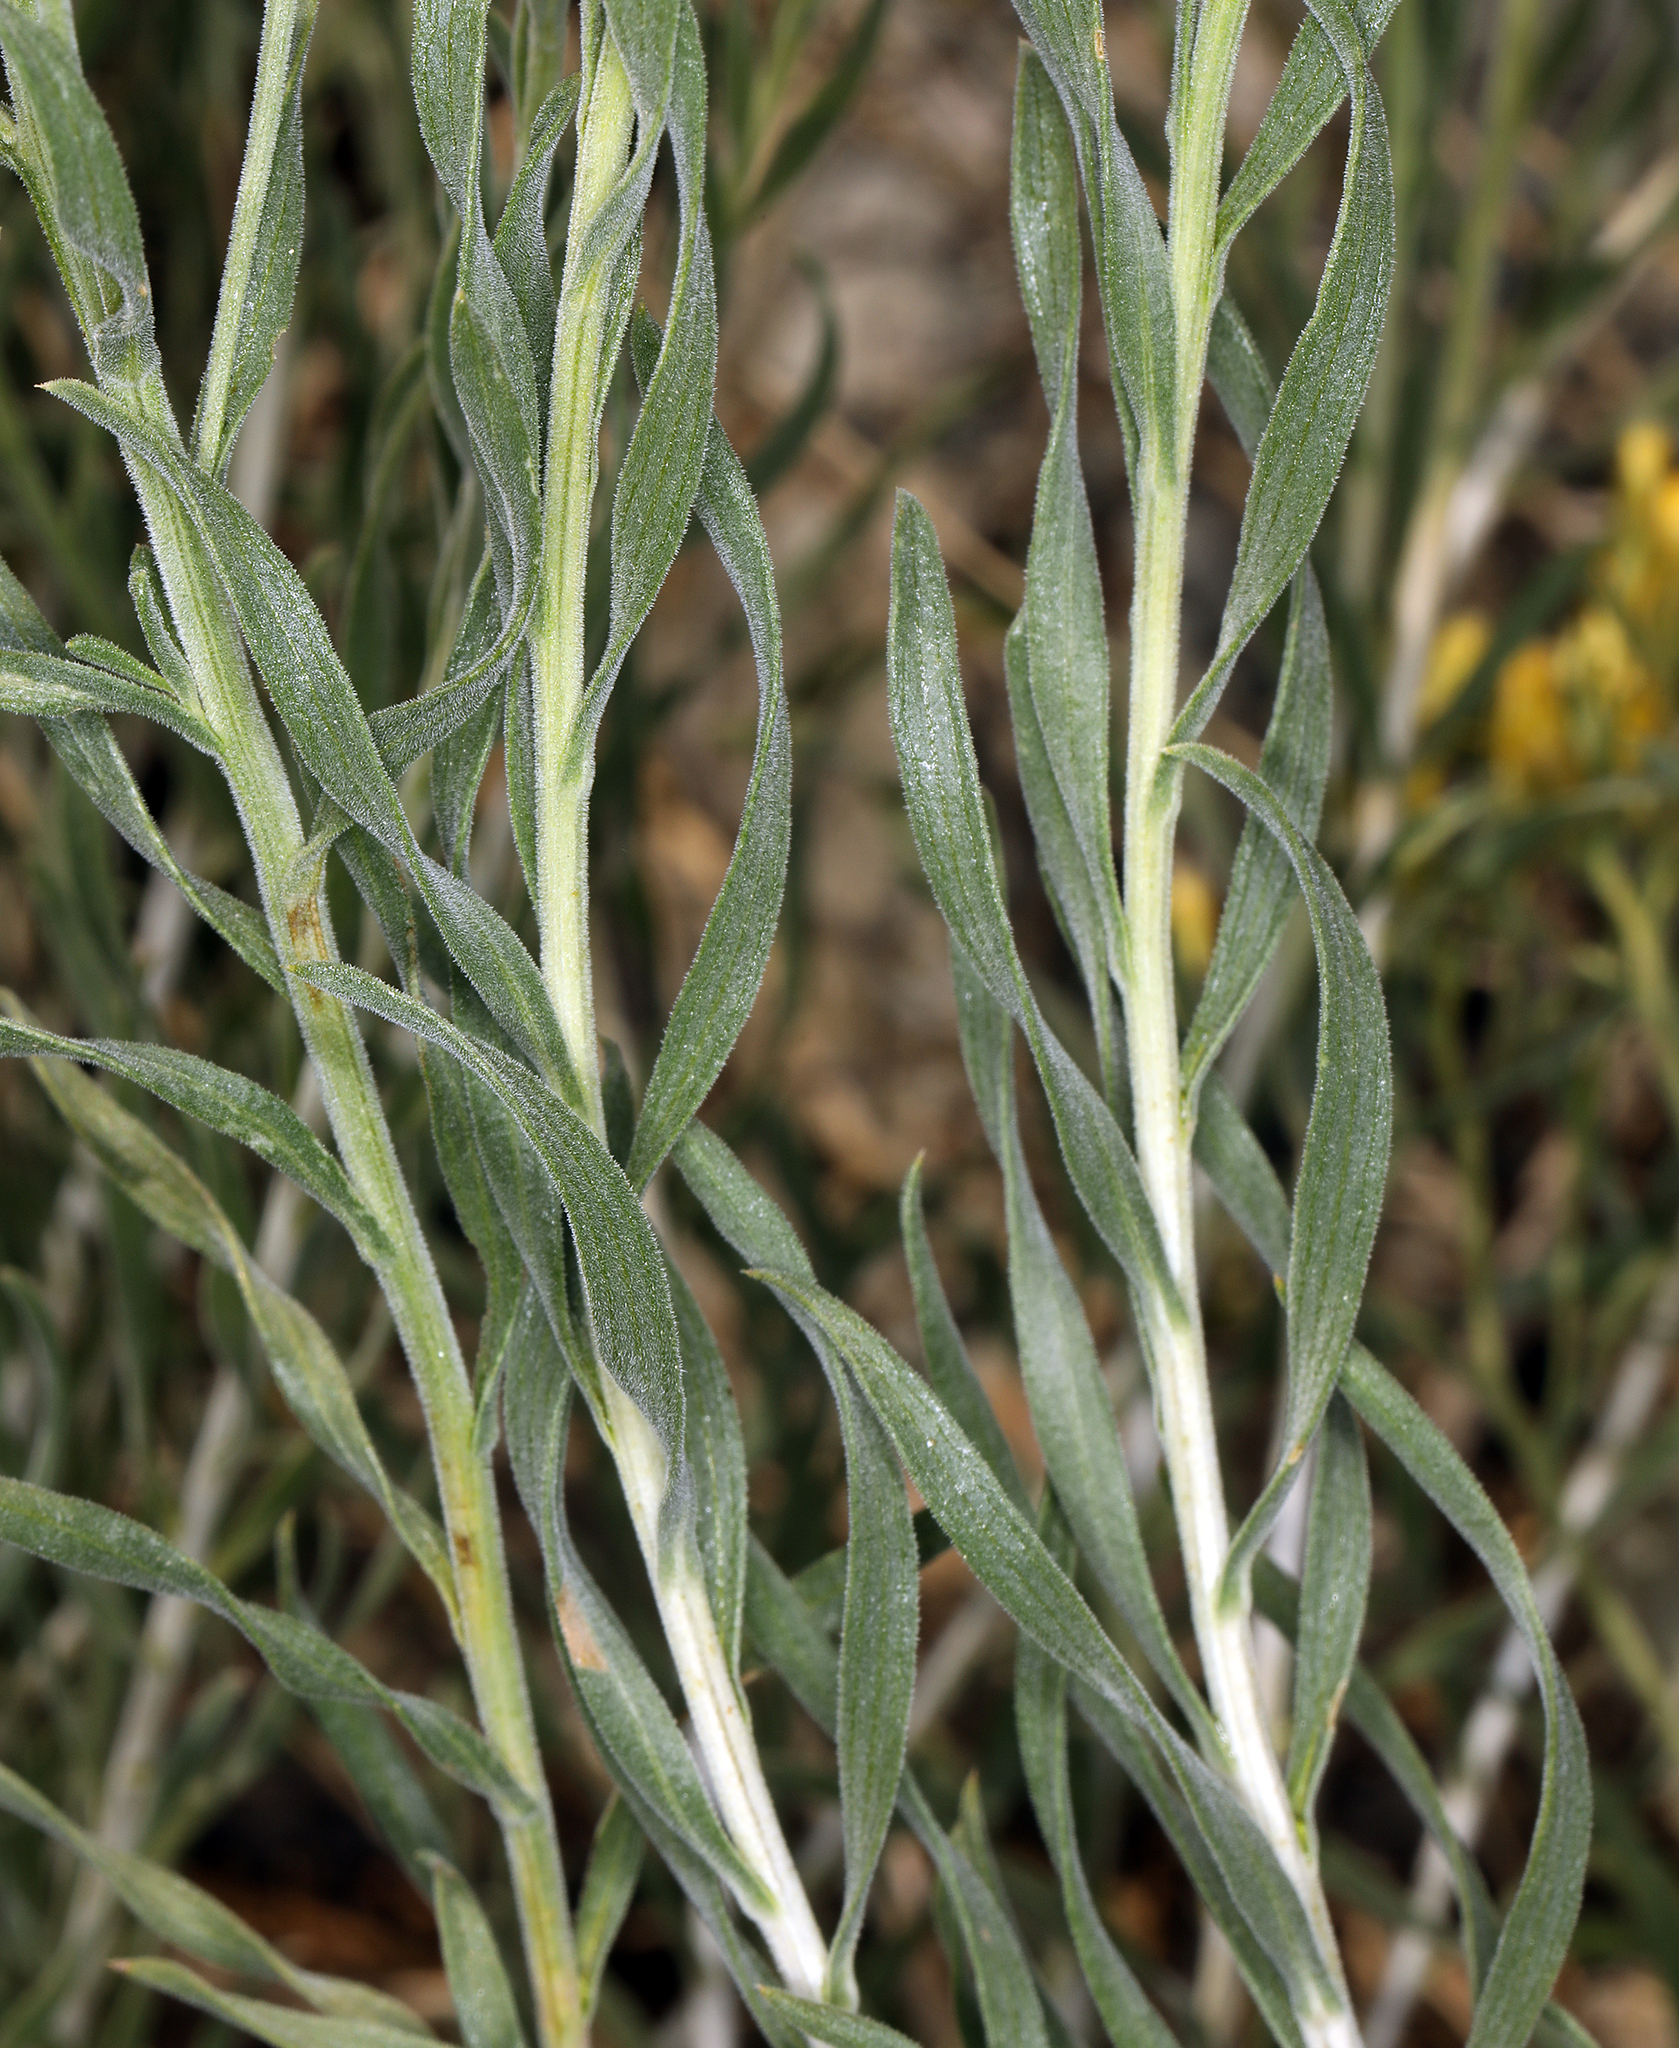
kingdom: Plantae
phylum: Tracheophyta
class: Magnoliopsida
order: Asterales
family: Asteraceae
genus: Chrysothamnus
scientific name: Chrysothamnus viscidiflorus
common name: Yellow rabbitbrush
